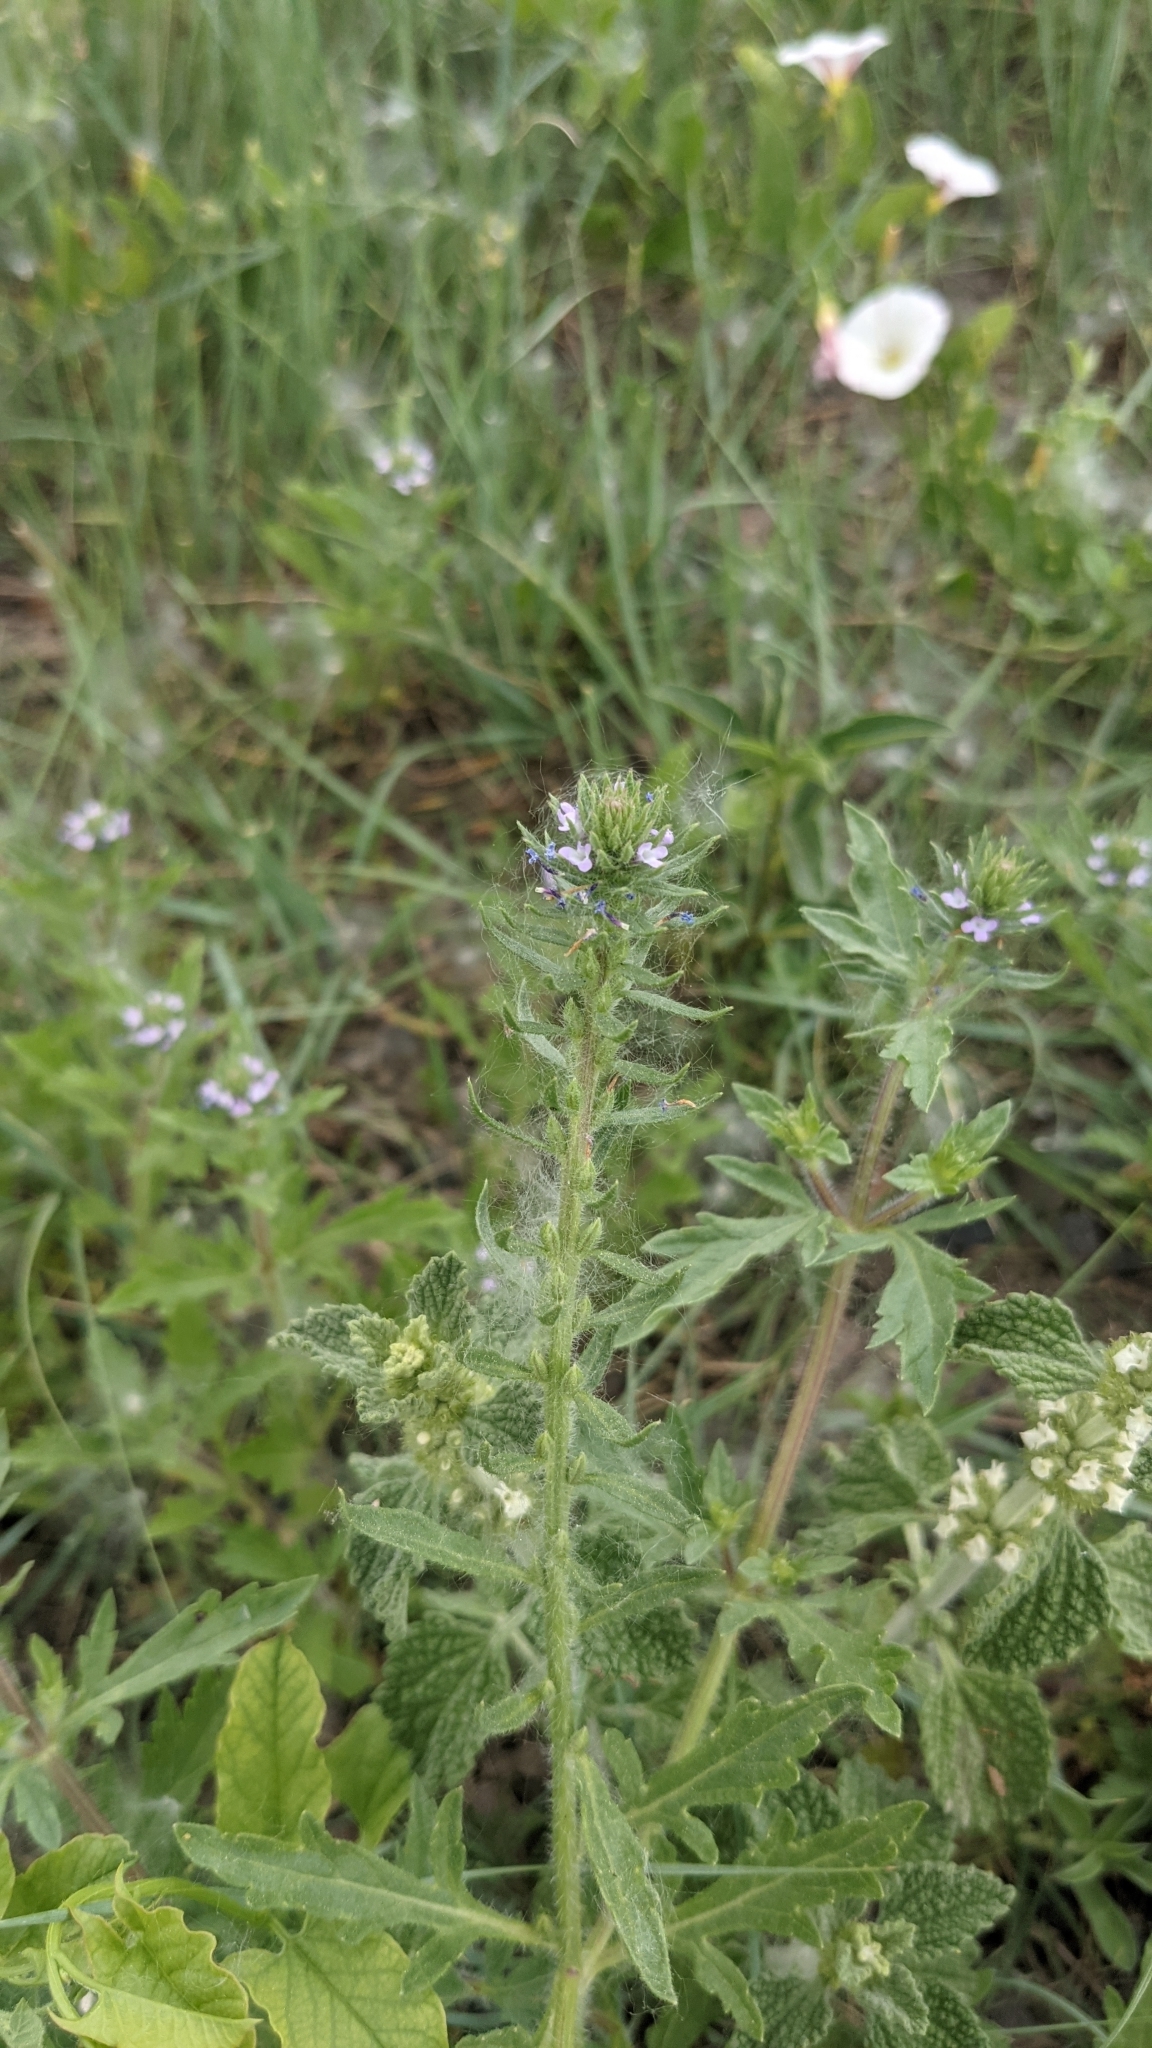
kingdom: Plantae
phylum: Tracheophyta
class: Magnoliopsida
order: Lamiales
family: Verbenaceae
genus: Verbena
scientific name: Verbena bracteata
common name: Bracted vervain
